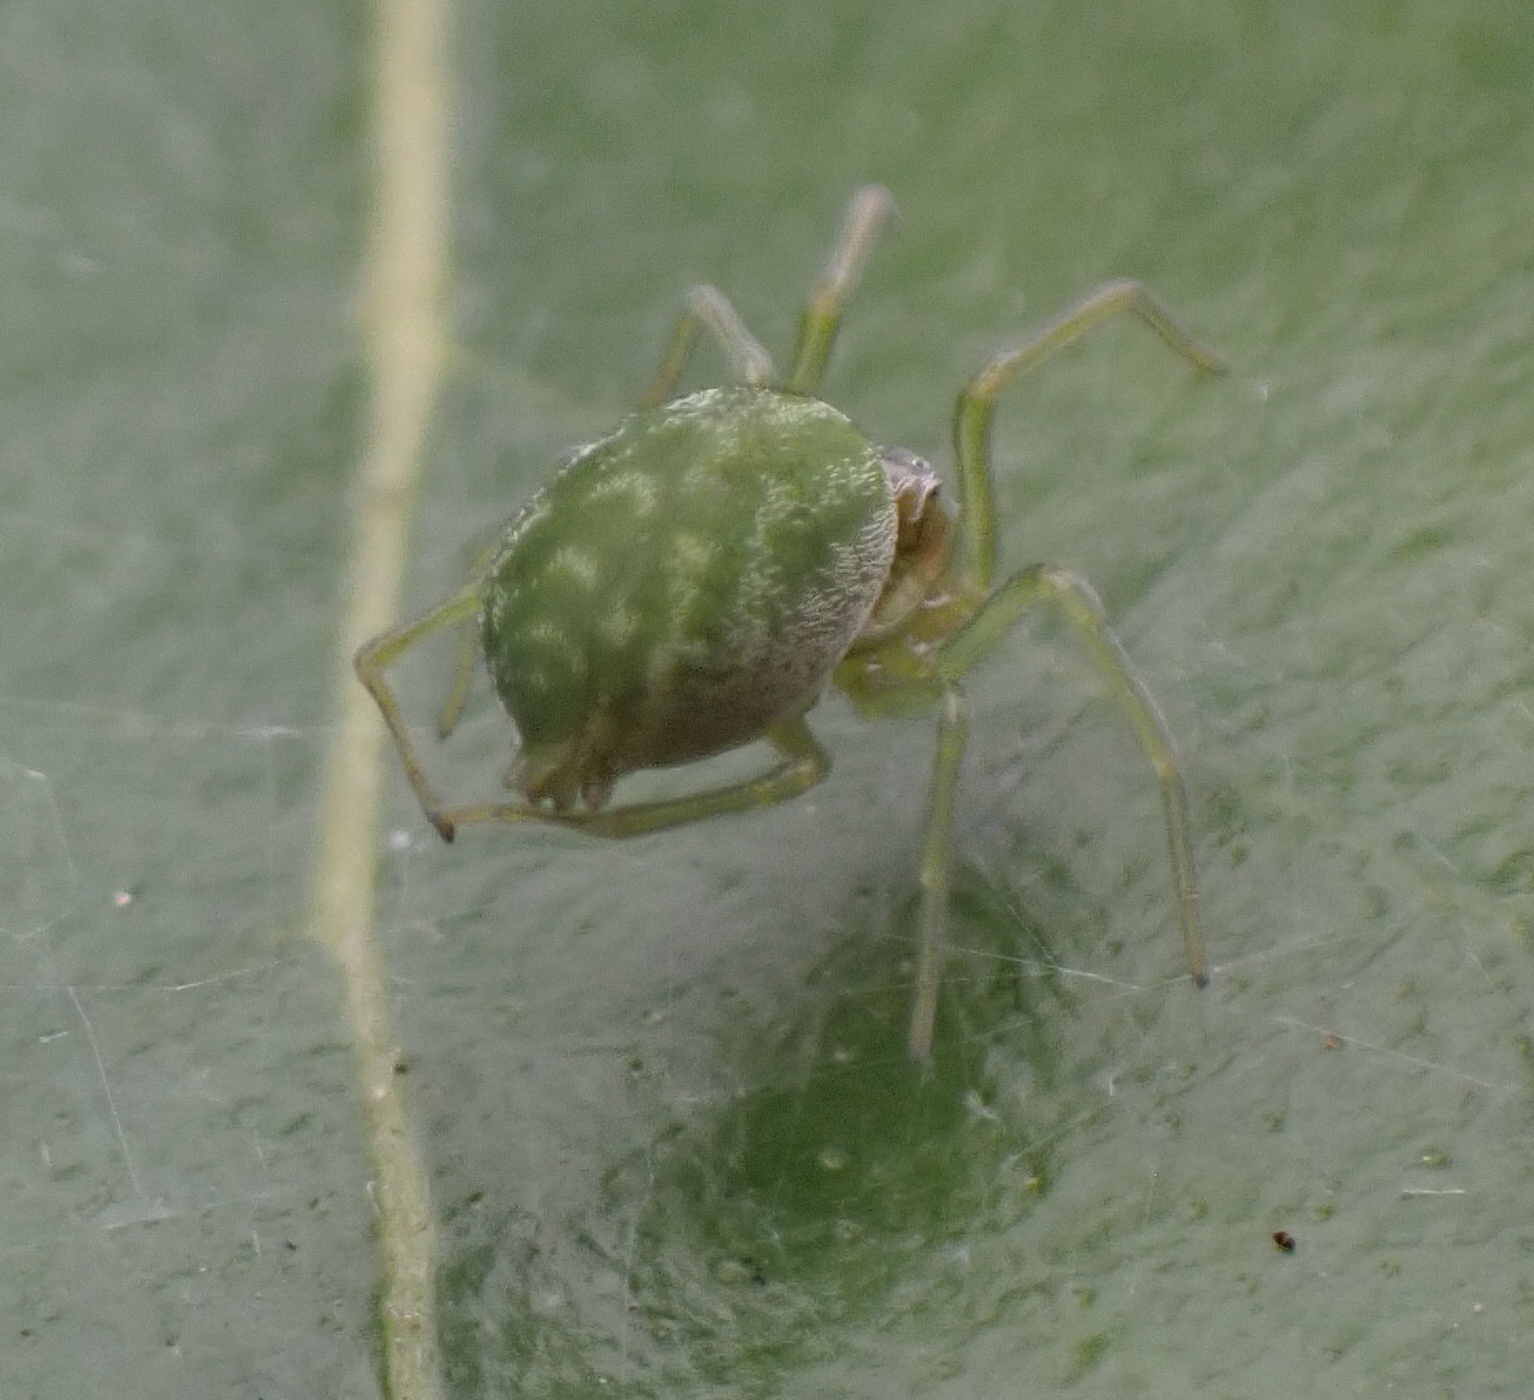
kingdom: Animalia
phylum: Arthropoda
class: Arachnida
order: Araneae
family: Dictynidae
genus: Nigma
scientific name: Nigma walckenaeri
